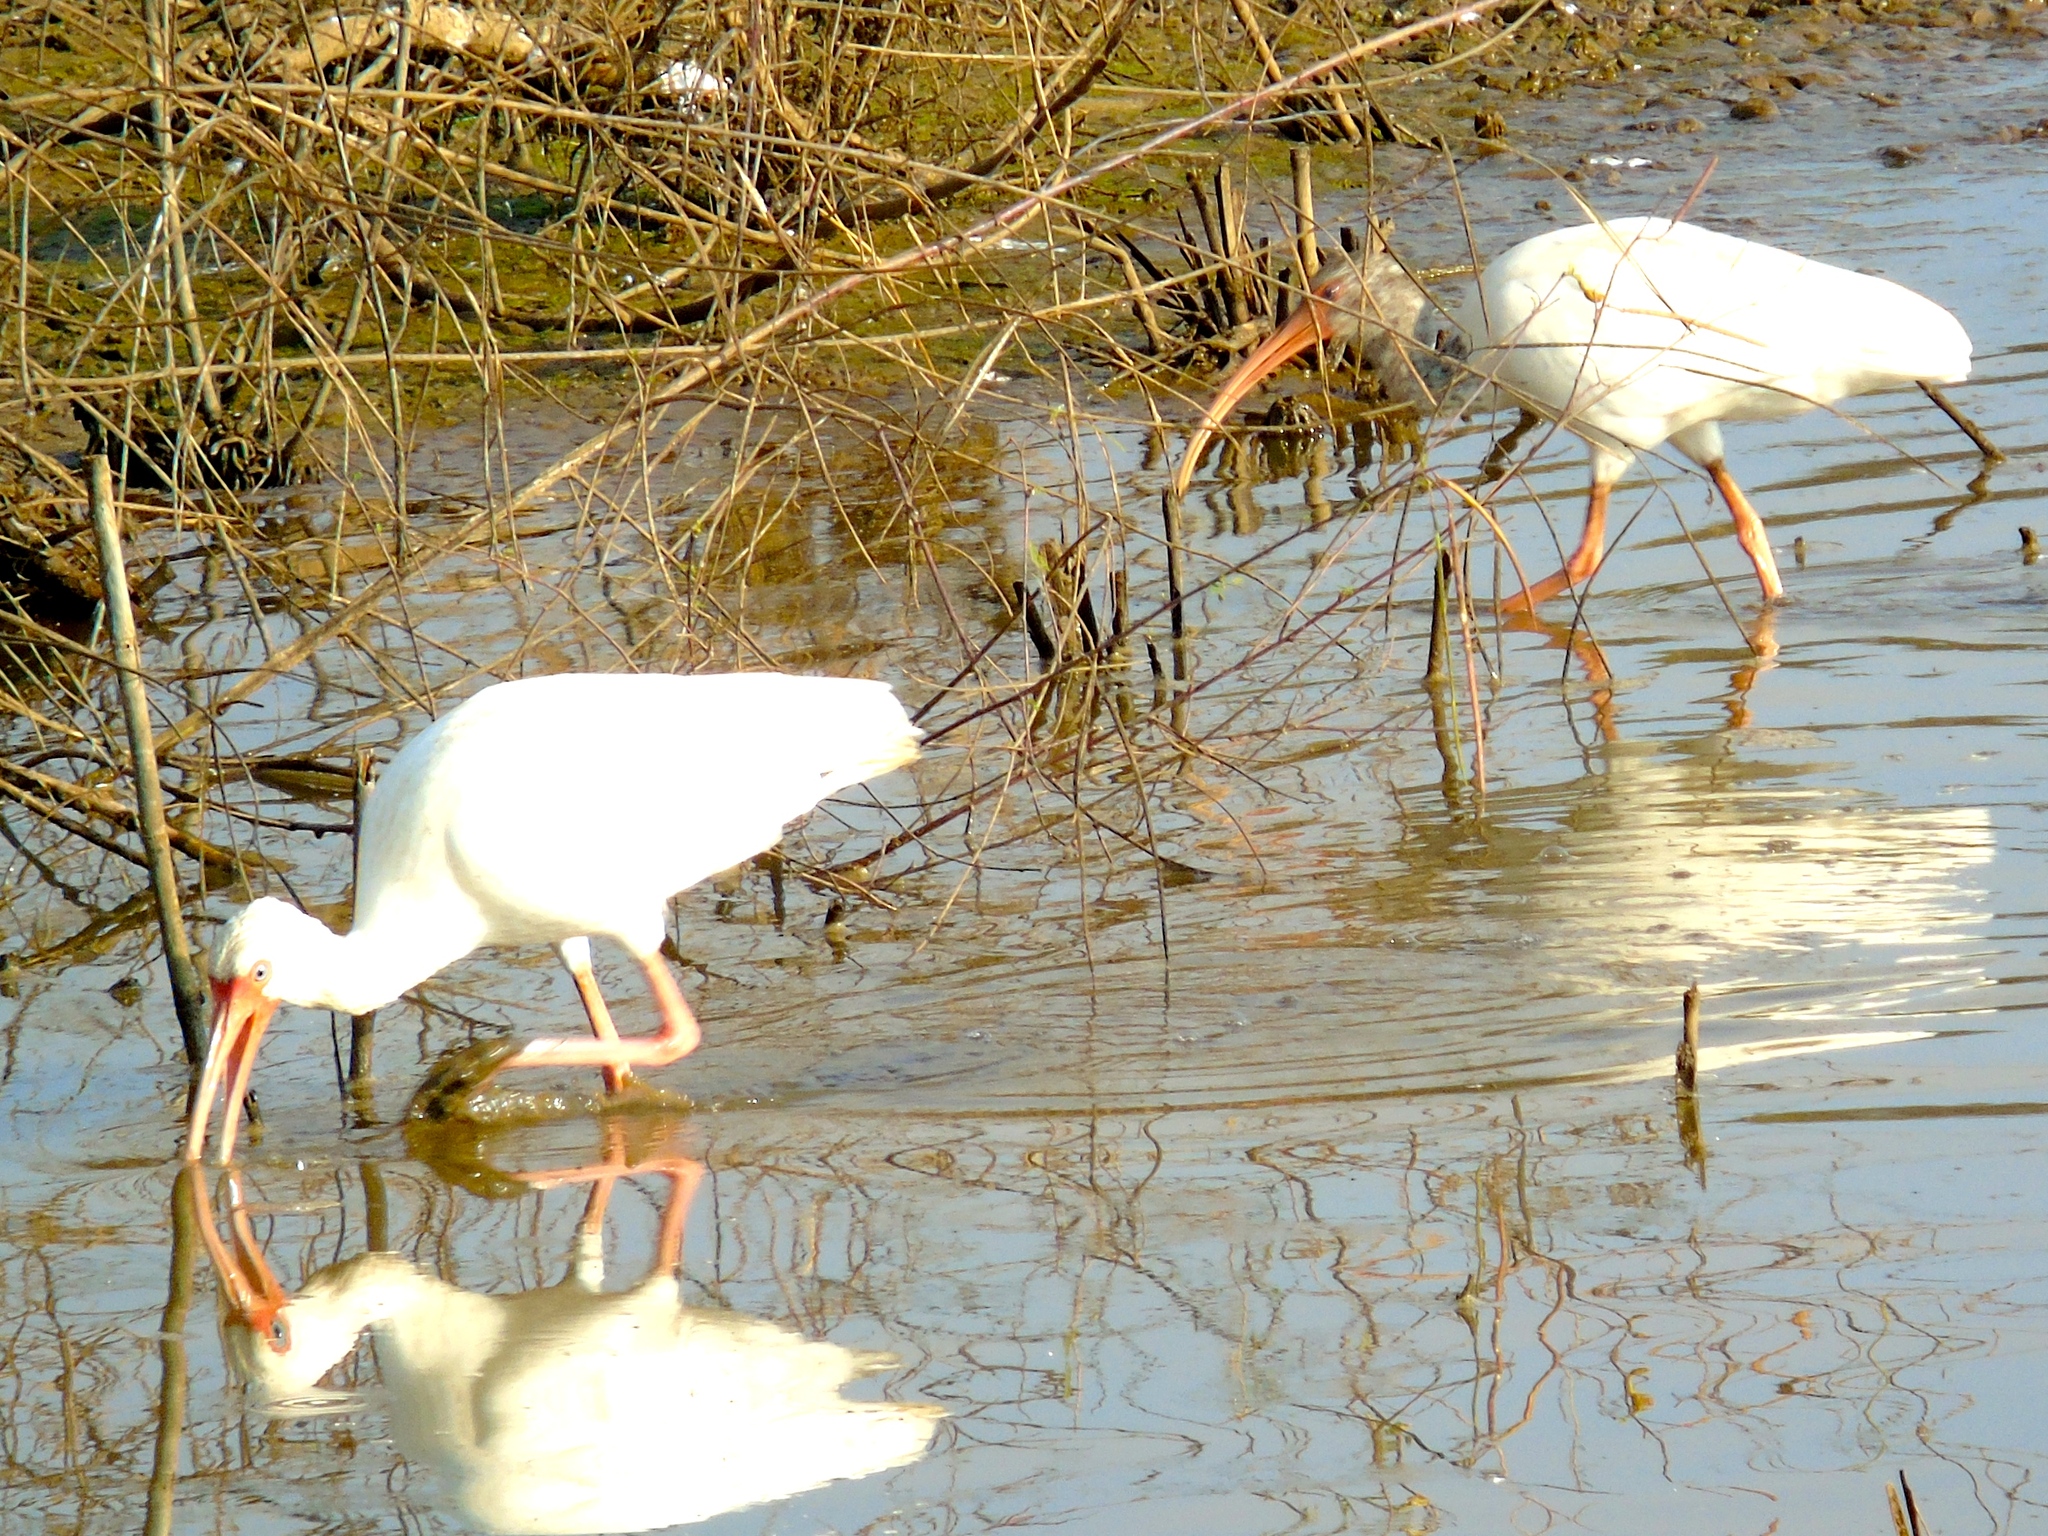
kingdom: Animalia
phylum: Chordata
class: Aves
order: Pelecaniformes
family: Threskiornithidae
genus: Eudocimus
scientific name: Eudocimus albus
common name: White ibis
